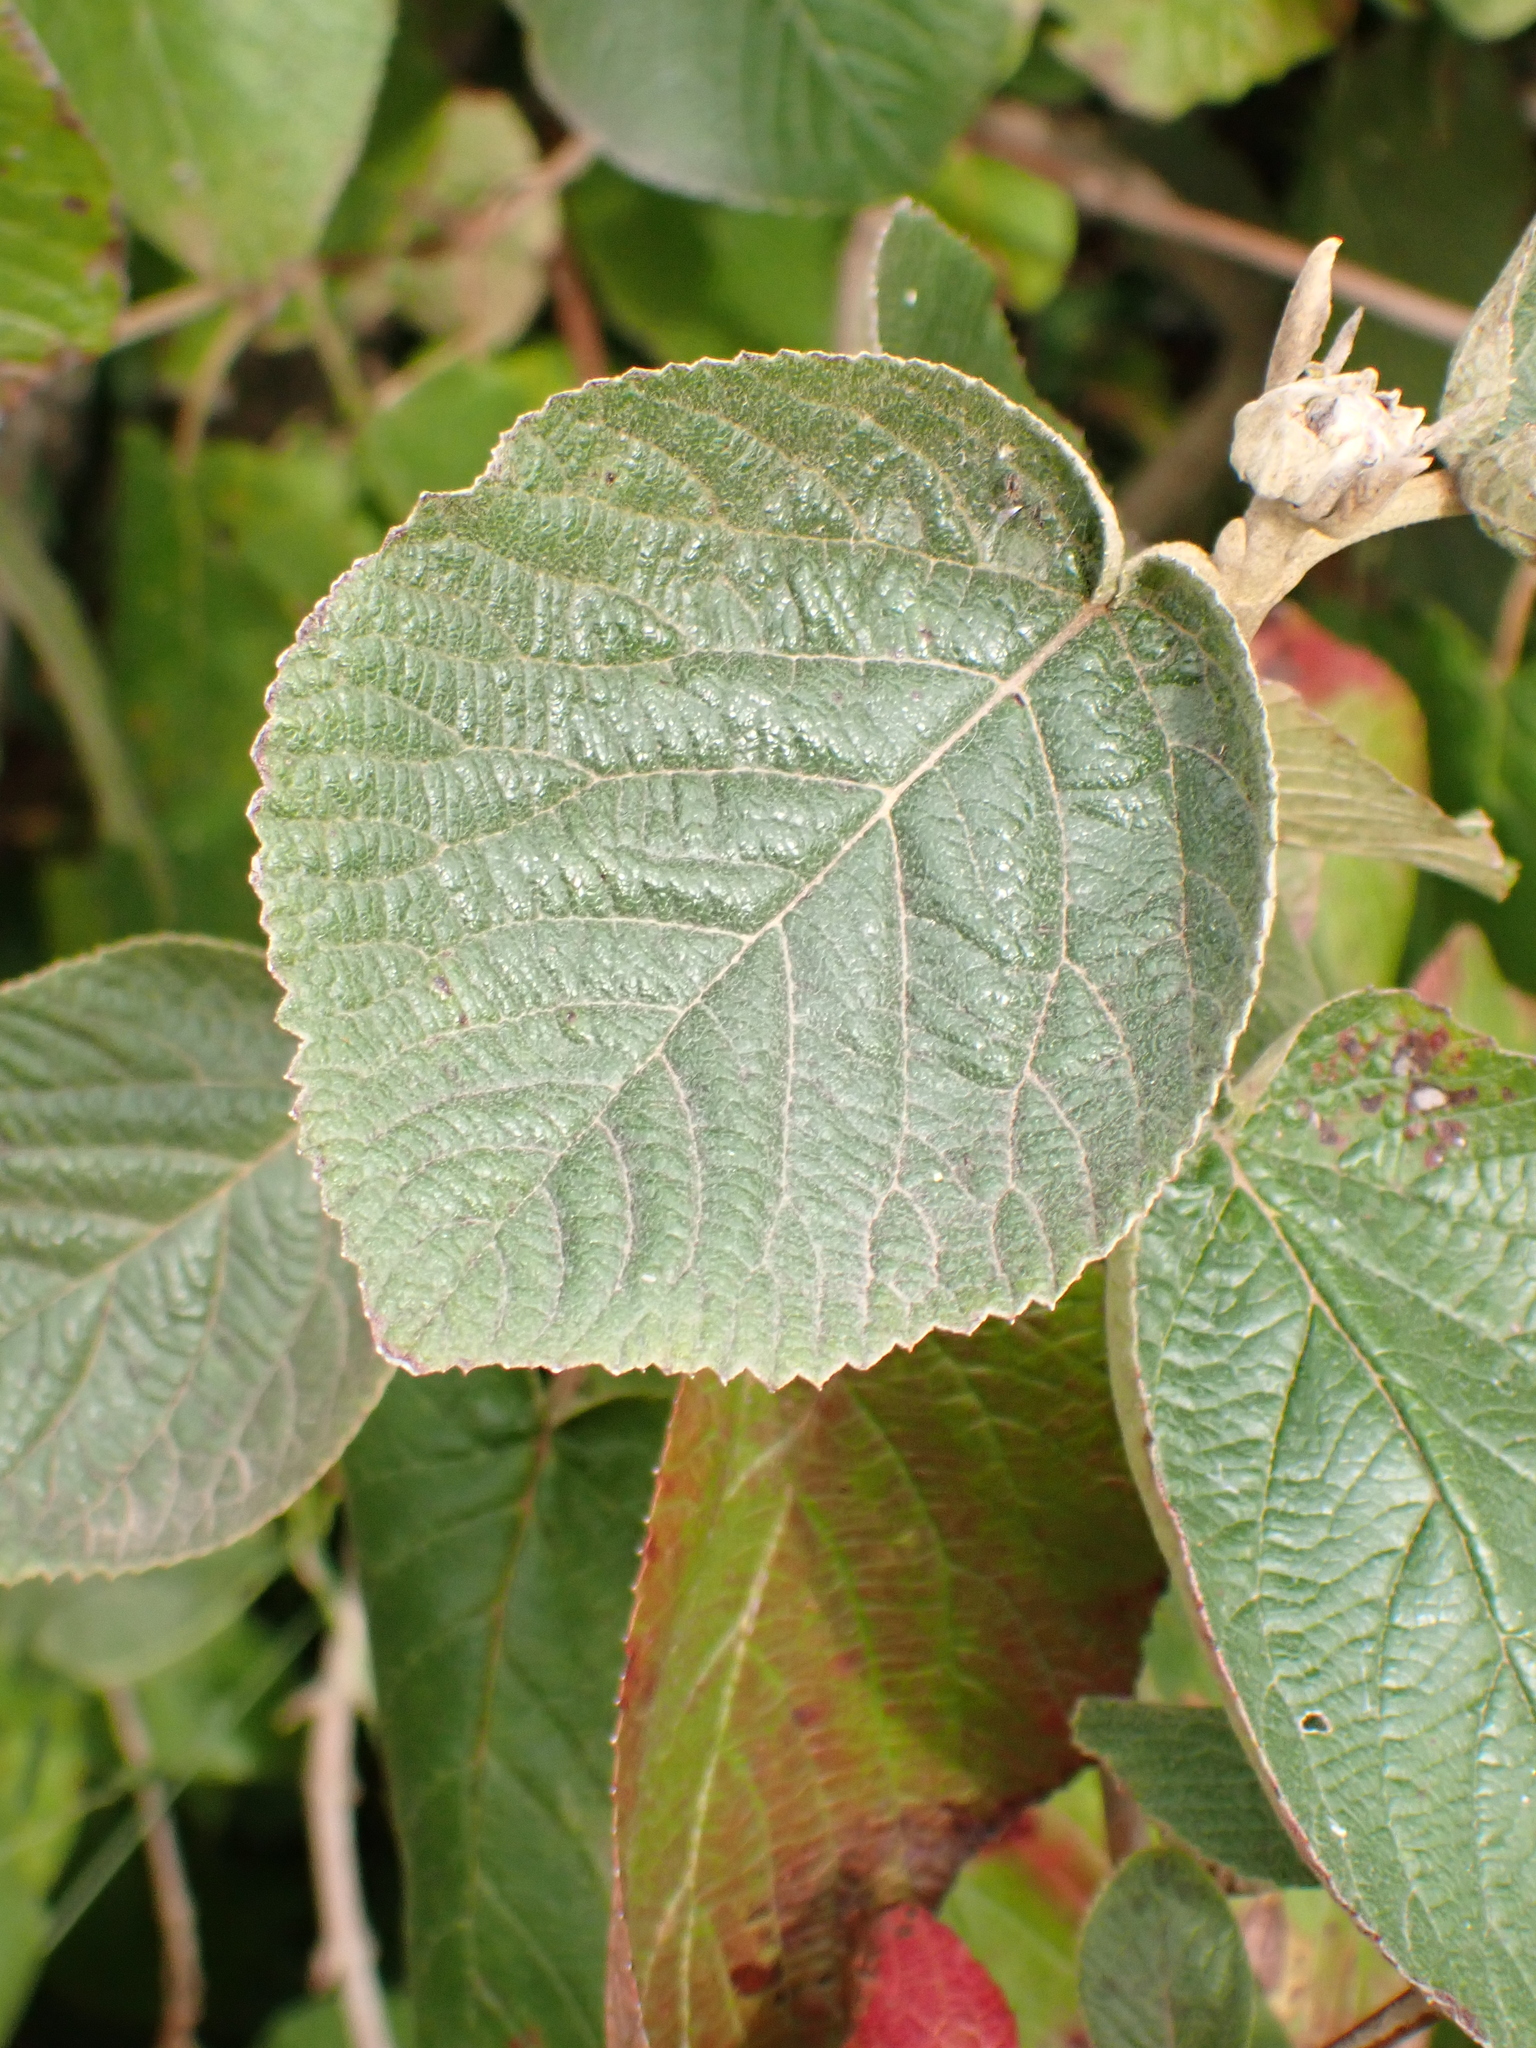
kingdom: Plantae
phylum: Tracheophyta
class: Magnoliopsida
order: Dipsacales
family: Viburnaceae
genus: Viburnum
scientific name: Viburnum lantana
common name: Wayfaring tree
